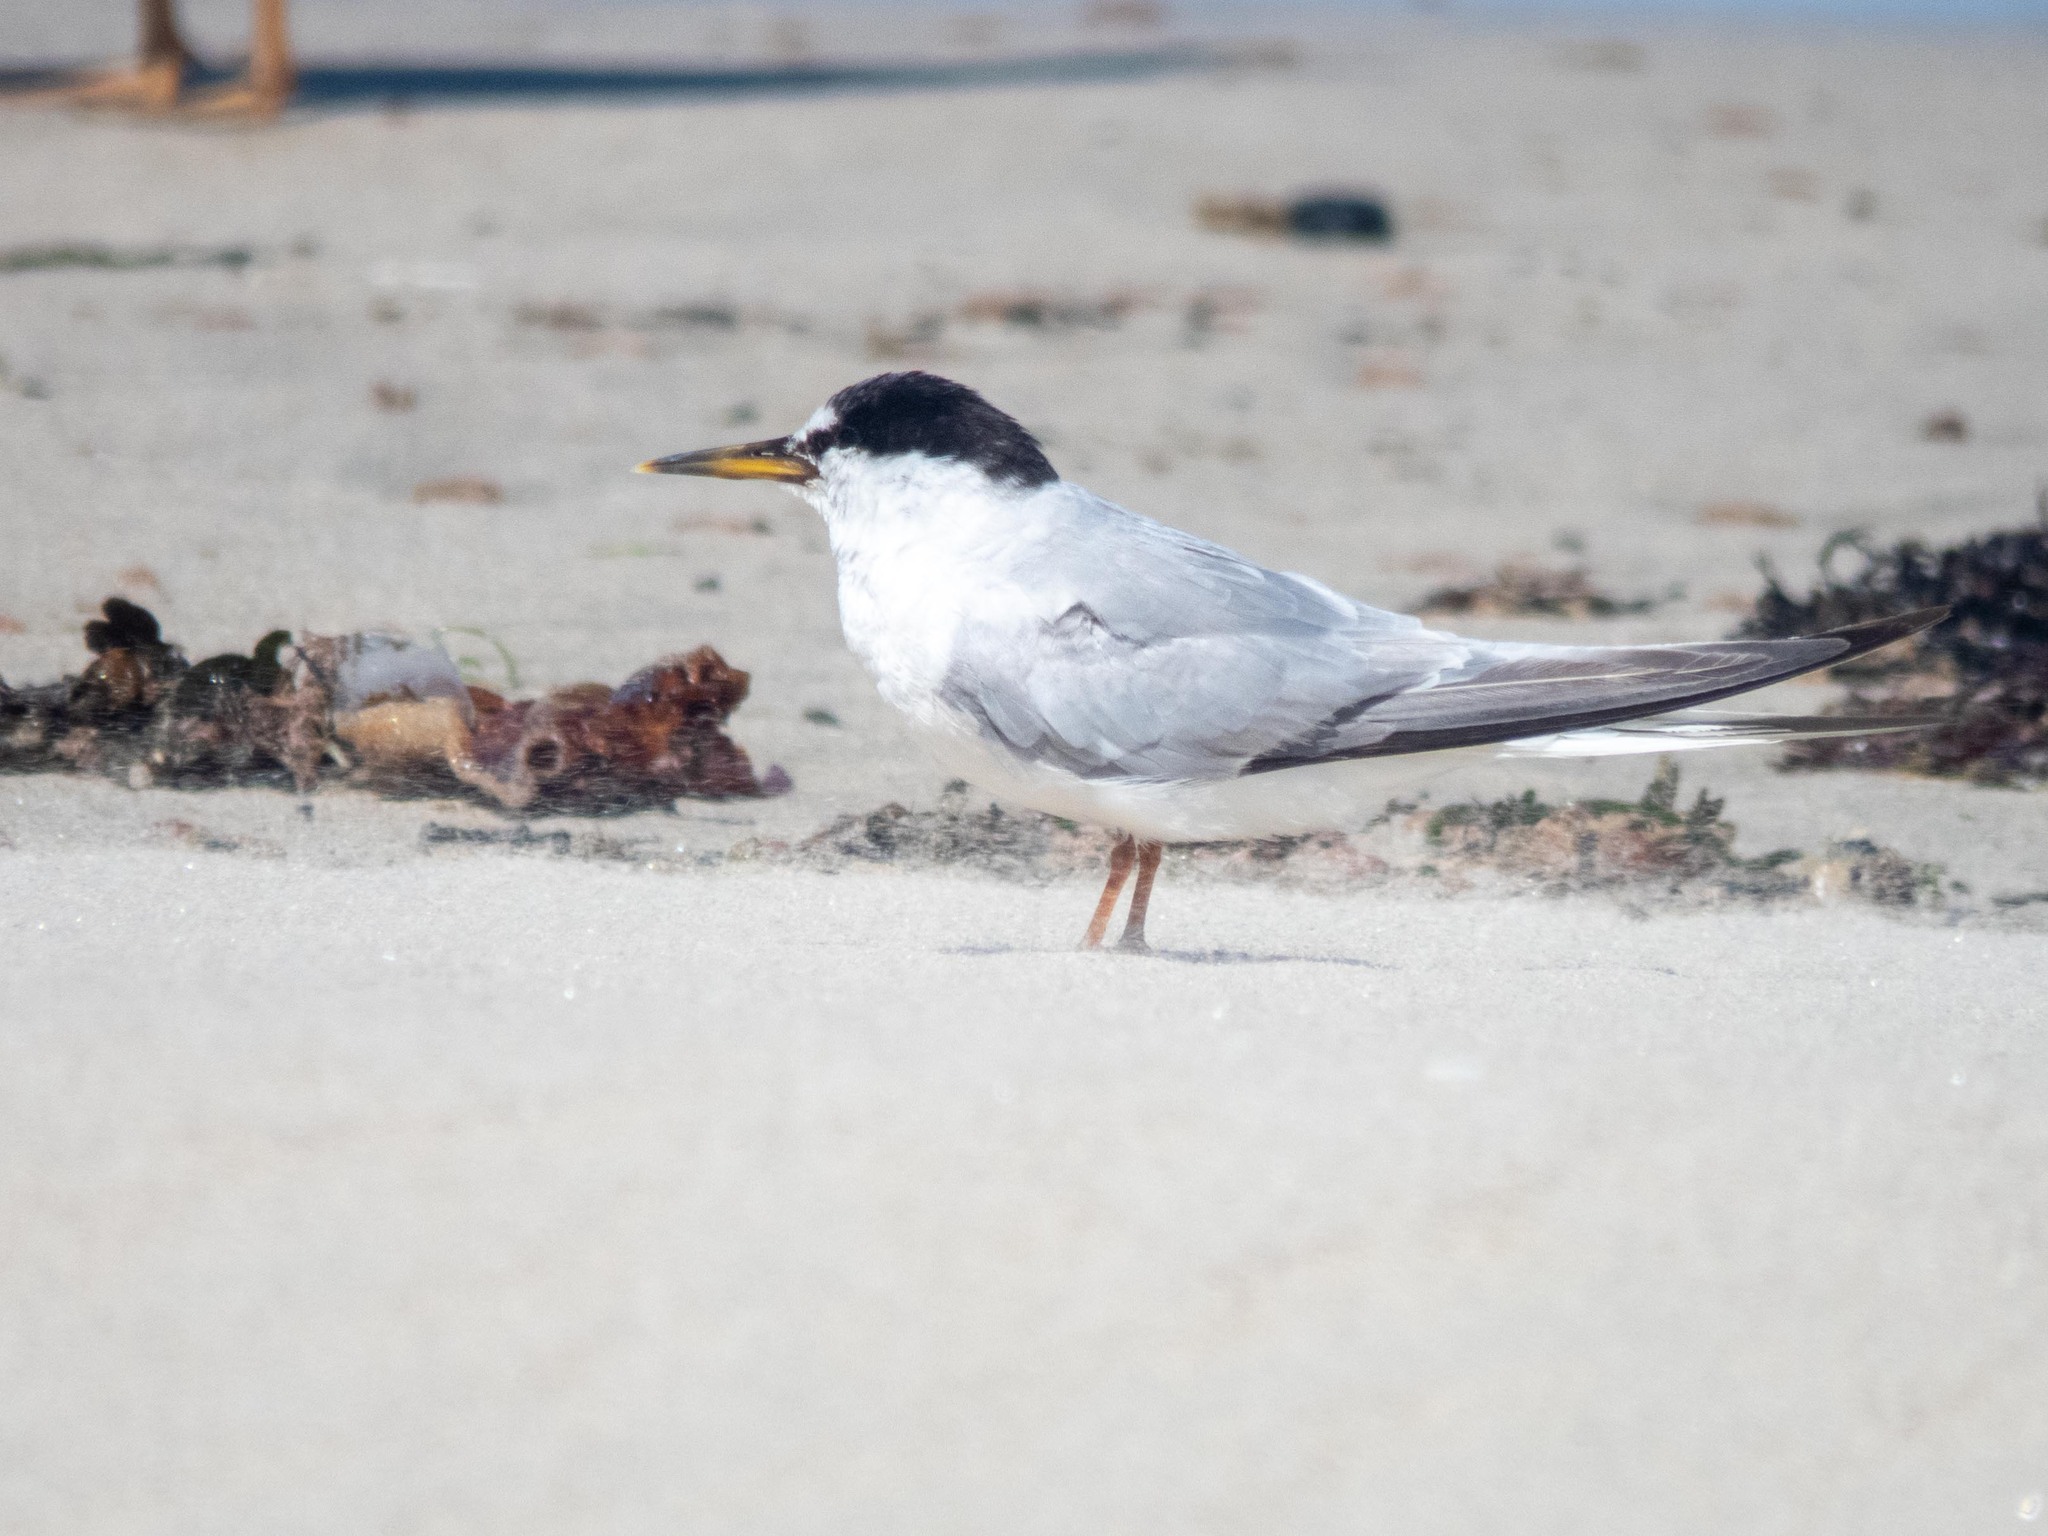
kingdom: Animalia
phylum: Chordata
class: Aves
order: Charadriiformes
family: Laridae
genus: Sternula
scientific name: Sternula albifrons
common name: Little tern
